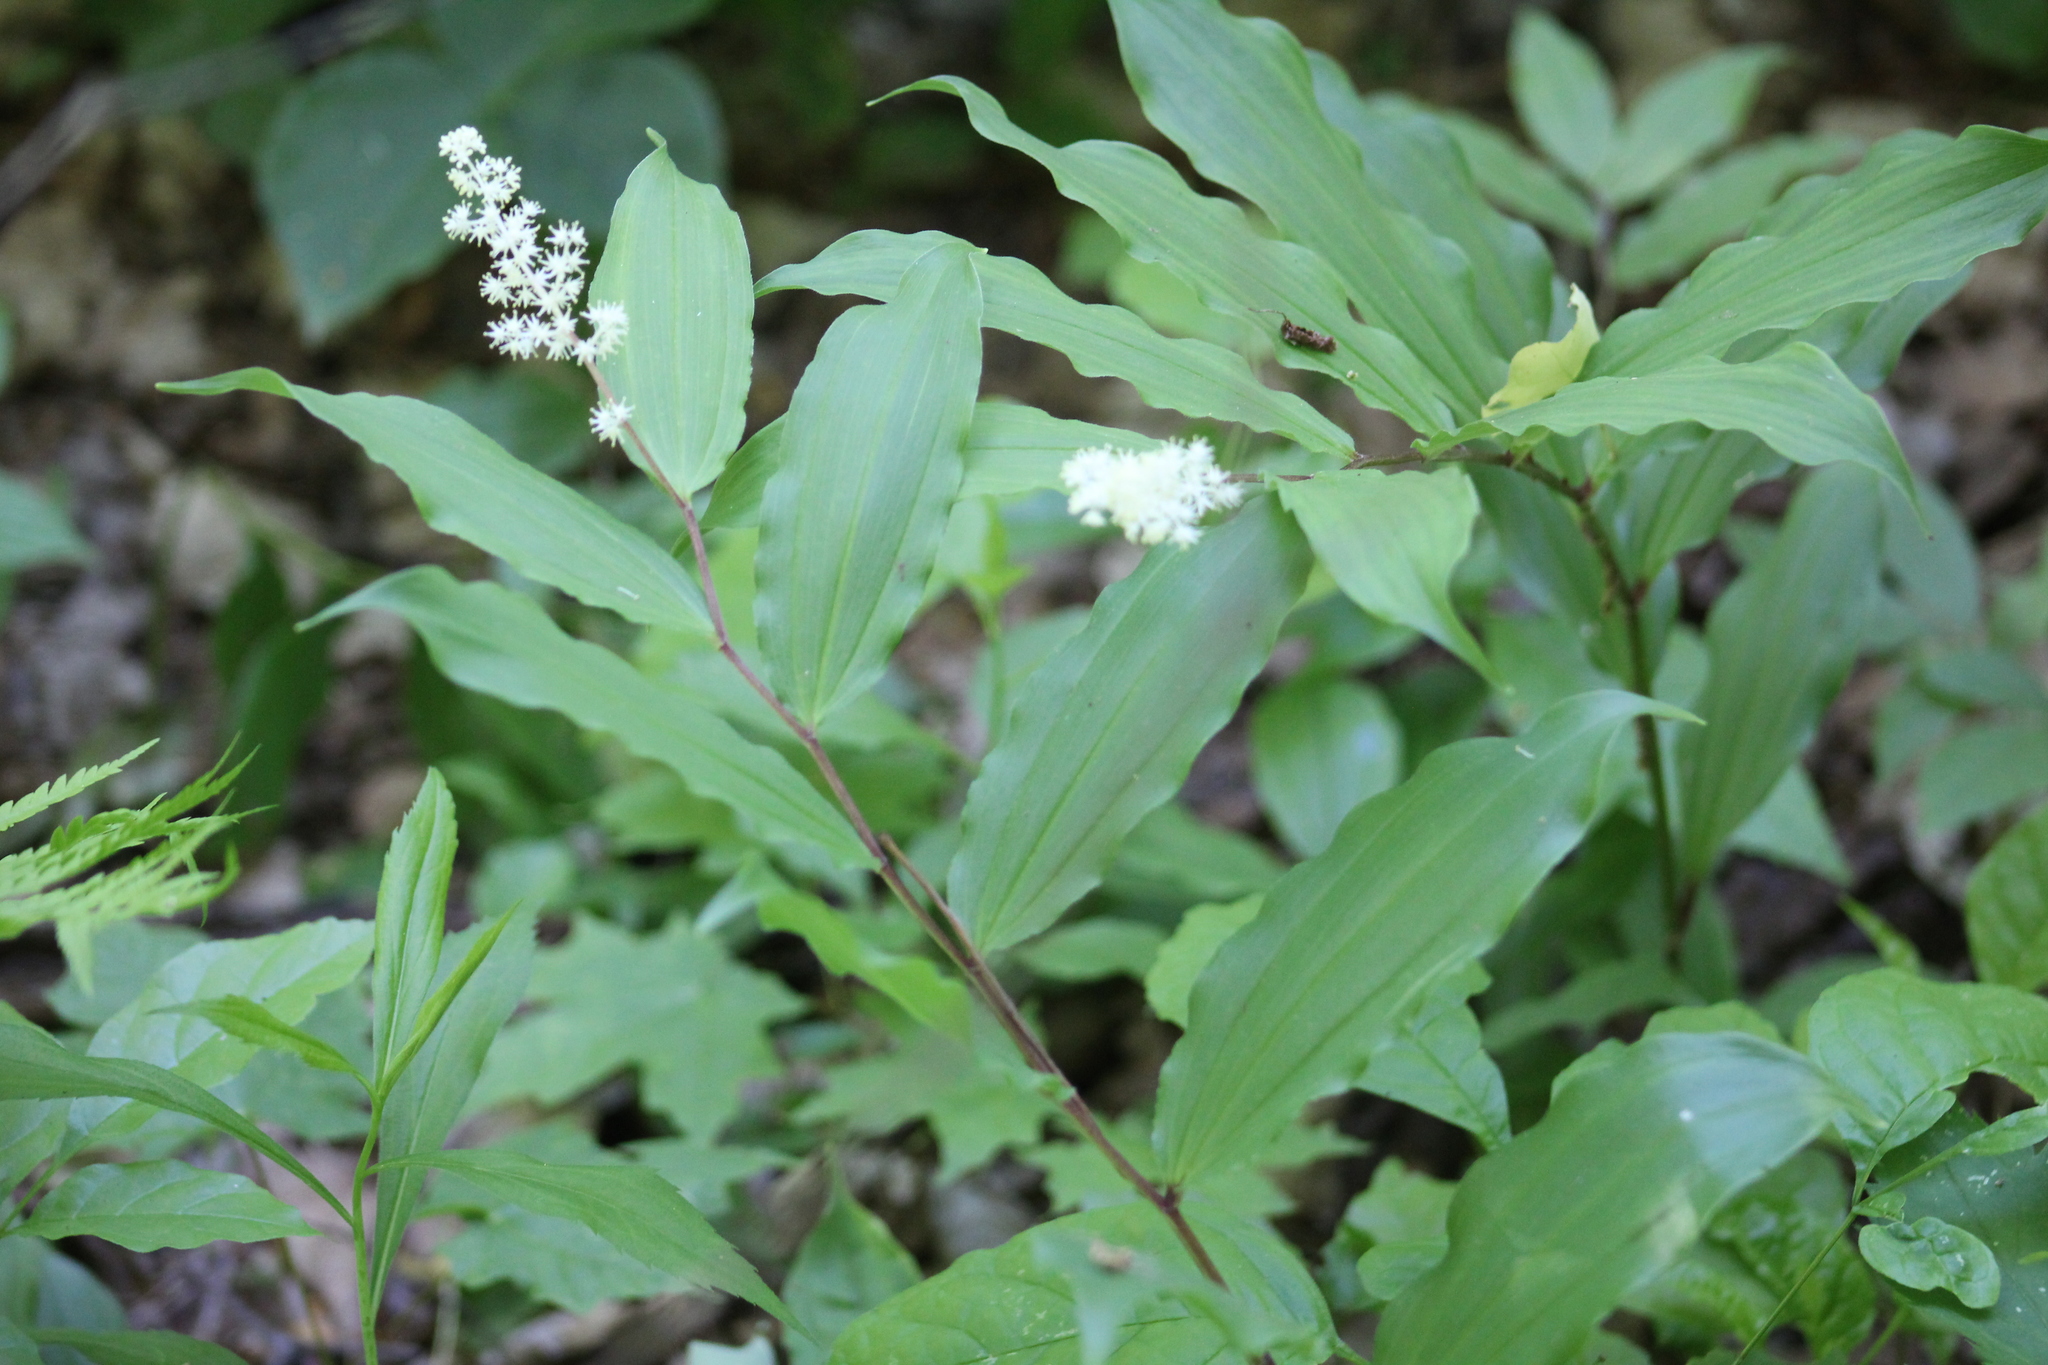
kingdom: Plantae
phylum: Tracheophyta
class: Liliopsida
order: Asparagales
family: Asparagaceae
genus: Maianthemum
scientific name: Maianthemum racemosum
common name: False spikenard
